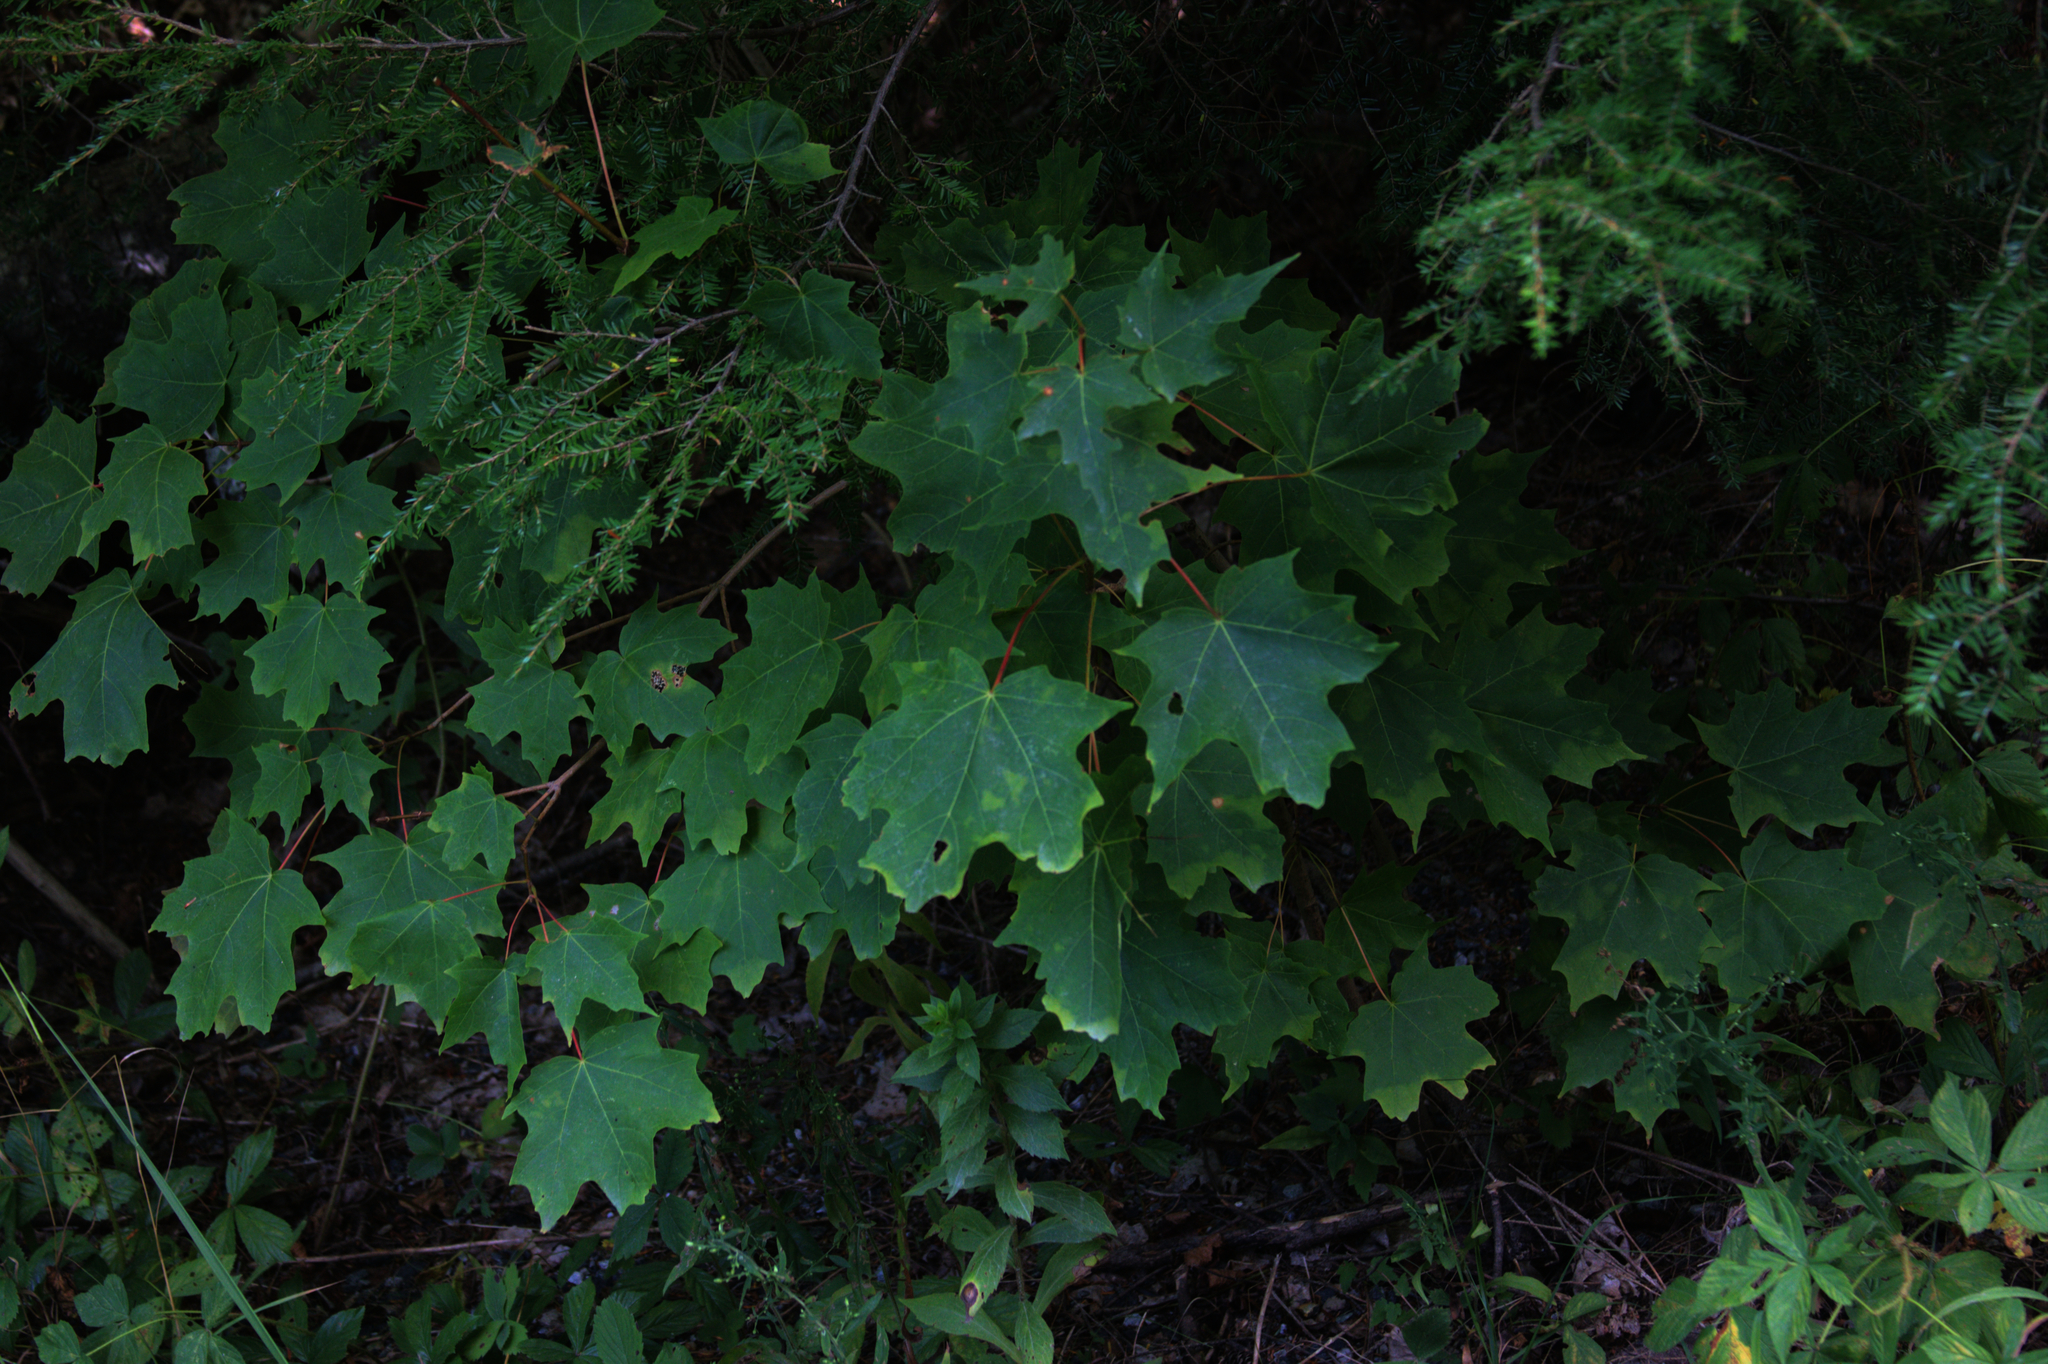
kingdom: Plantae
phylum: Tracheophyta
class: Pinopsida
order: Pinales
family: Pinaceae
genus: Tsuga
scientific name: Tsuga canadensis
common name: Eastern hemlock
